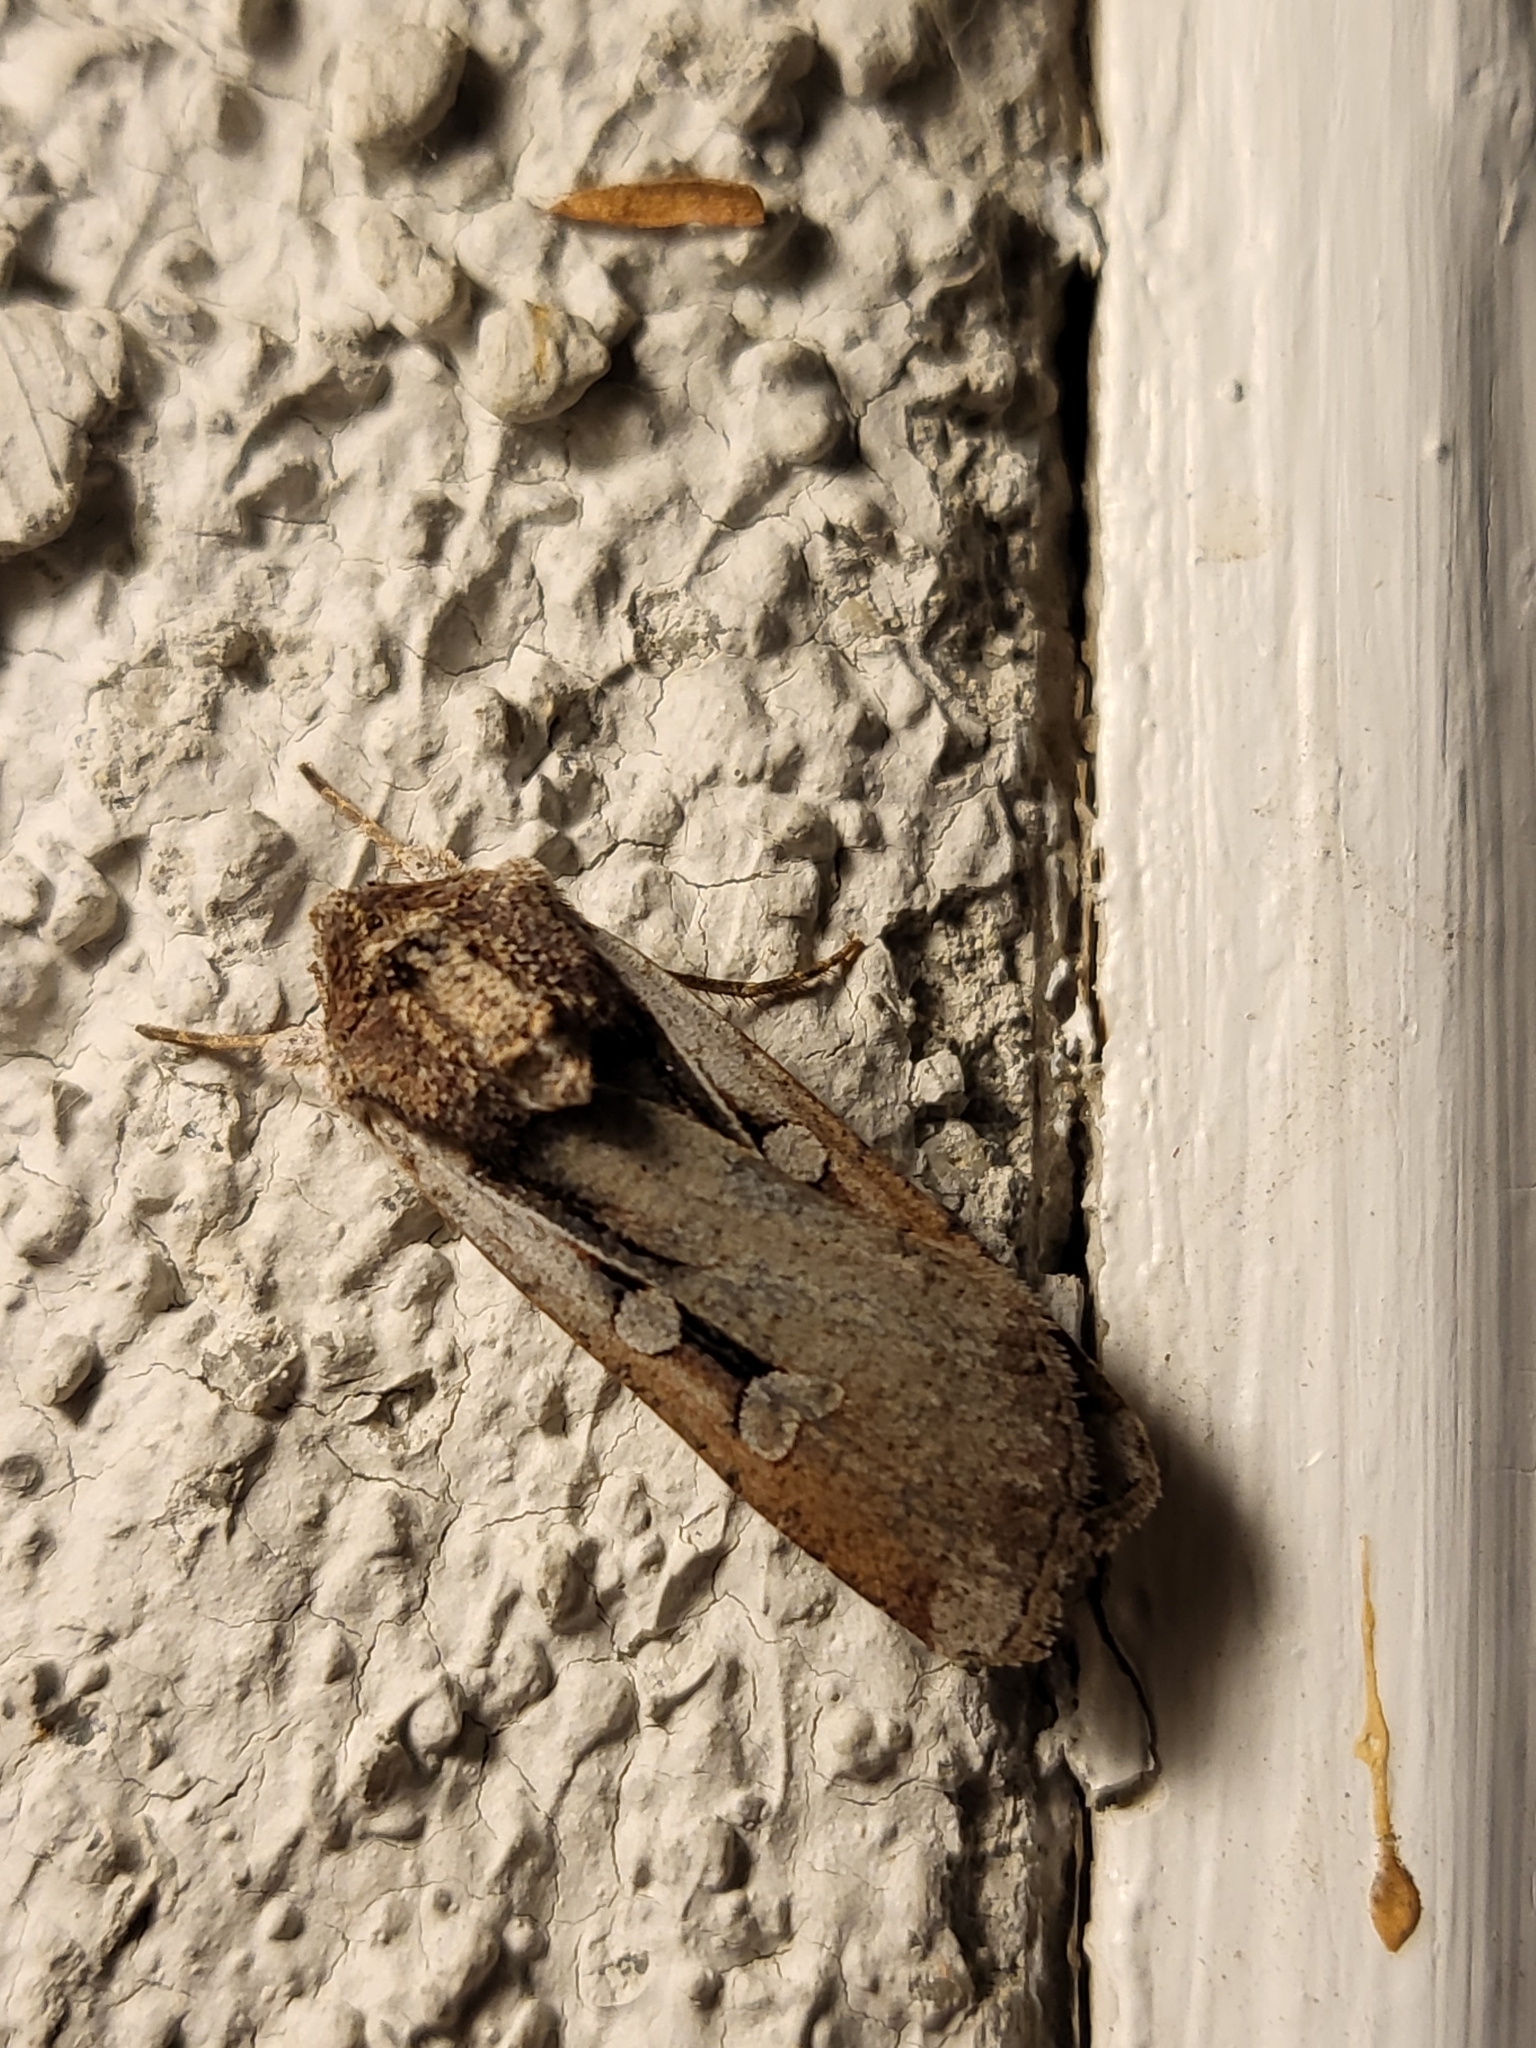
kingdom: Animalia
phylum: Arthropoda
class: Insecta
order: Lepidoptera
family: Noctuidae
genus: Hemieuxoa
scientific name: Hemieuxoa rudens
